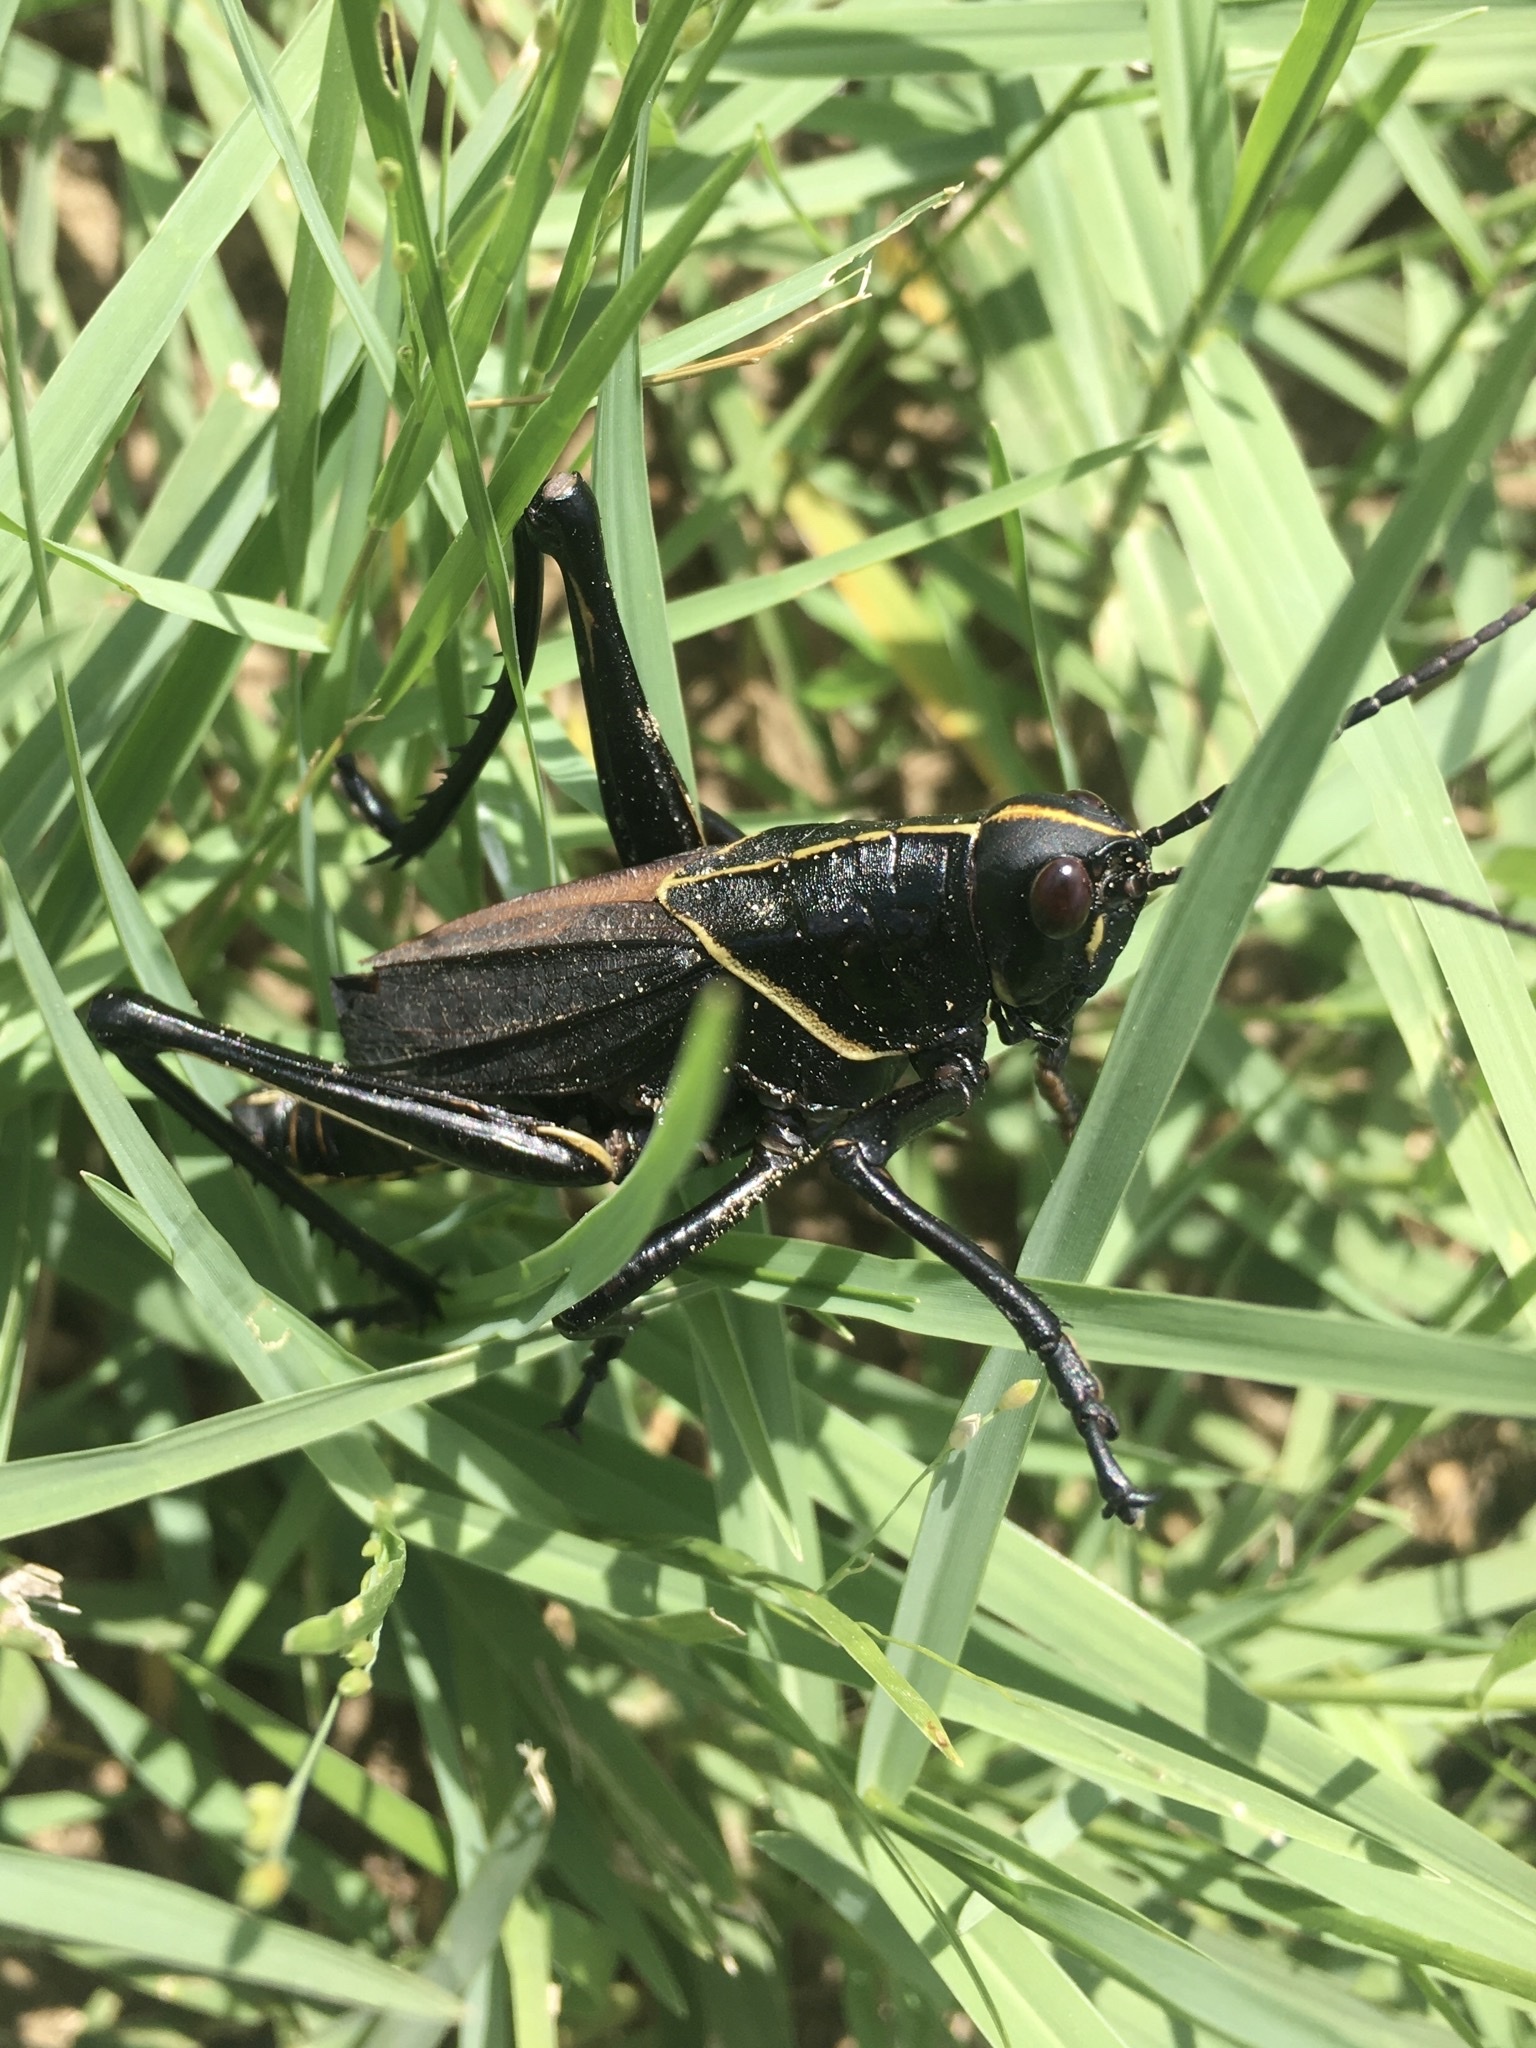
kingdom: Animalia
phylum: Arthropoda
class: Insecta
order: Orthoptera
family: Romaleidae
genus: Romalea
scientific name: Romalea microptera
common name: Eastern lubber grasshopper
